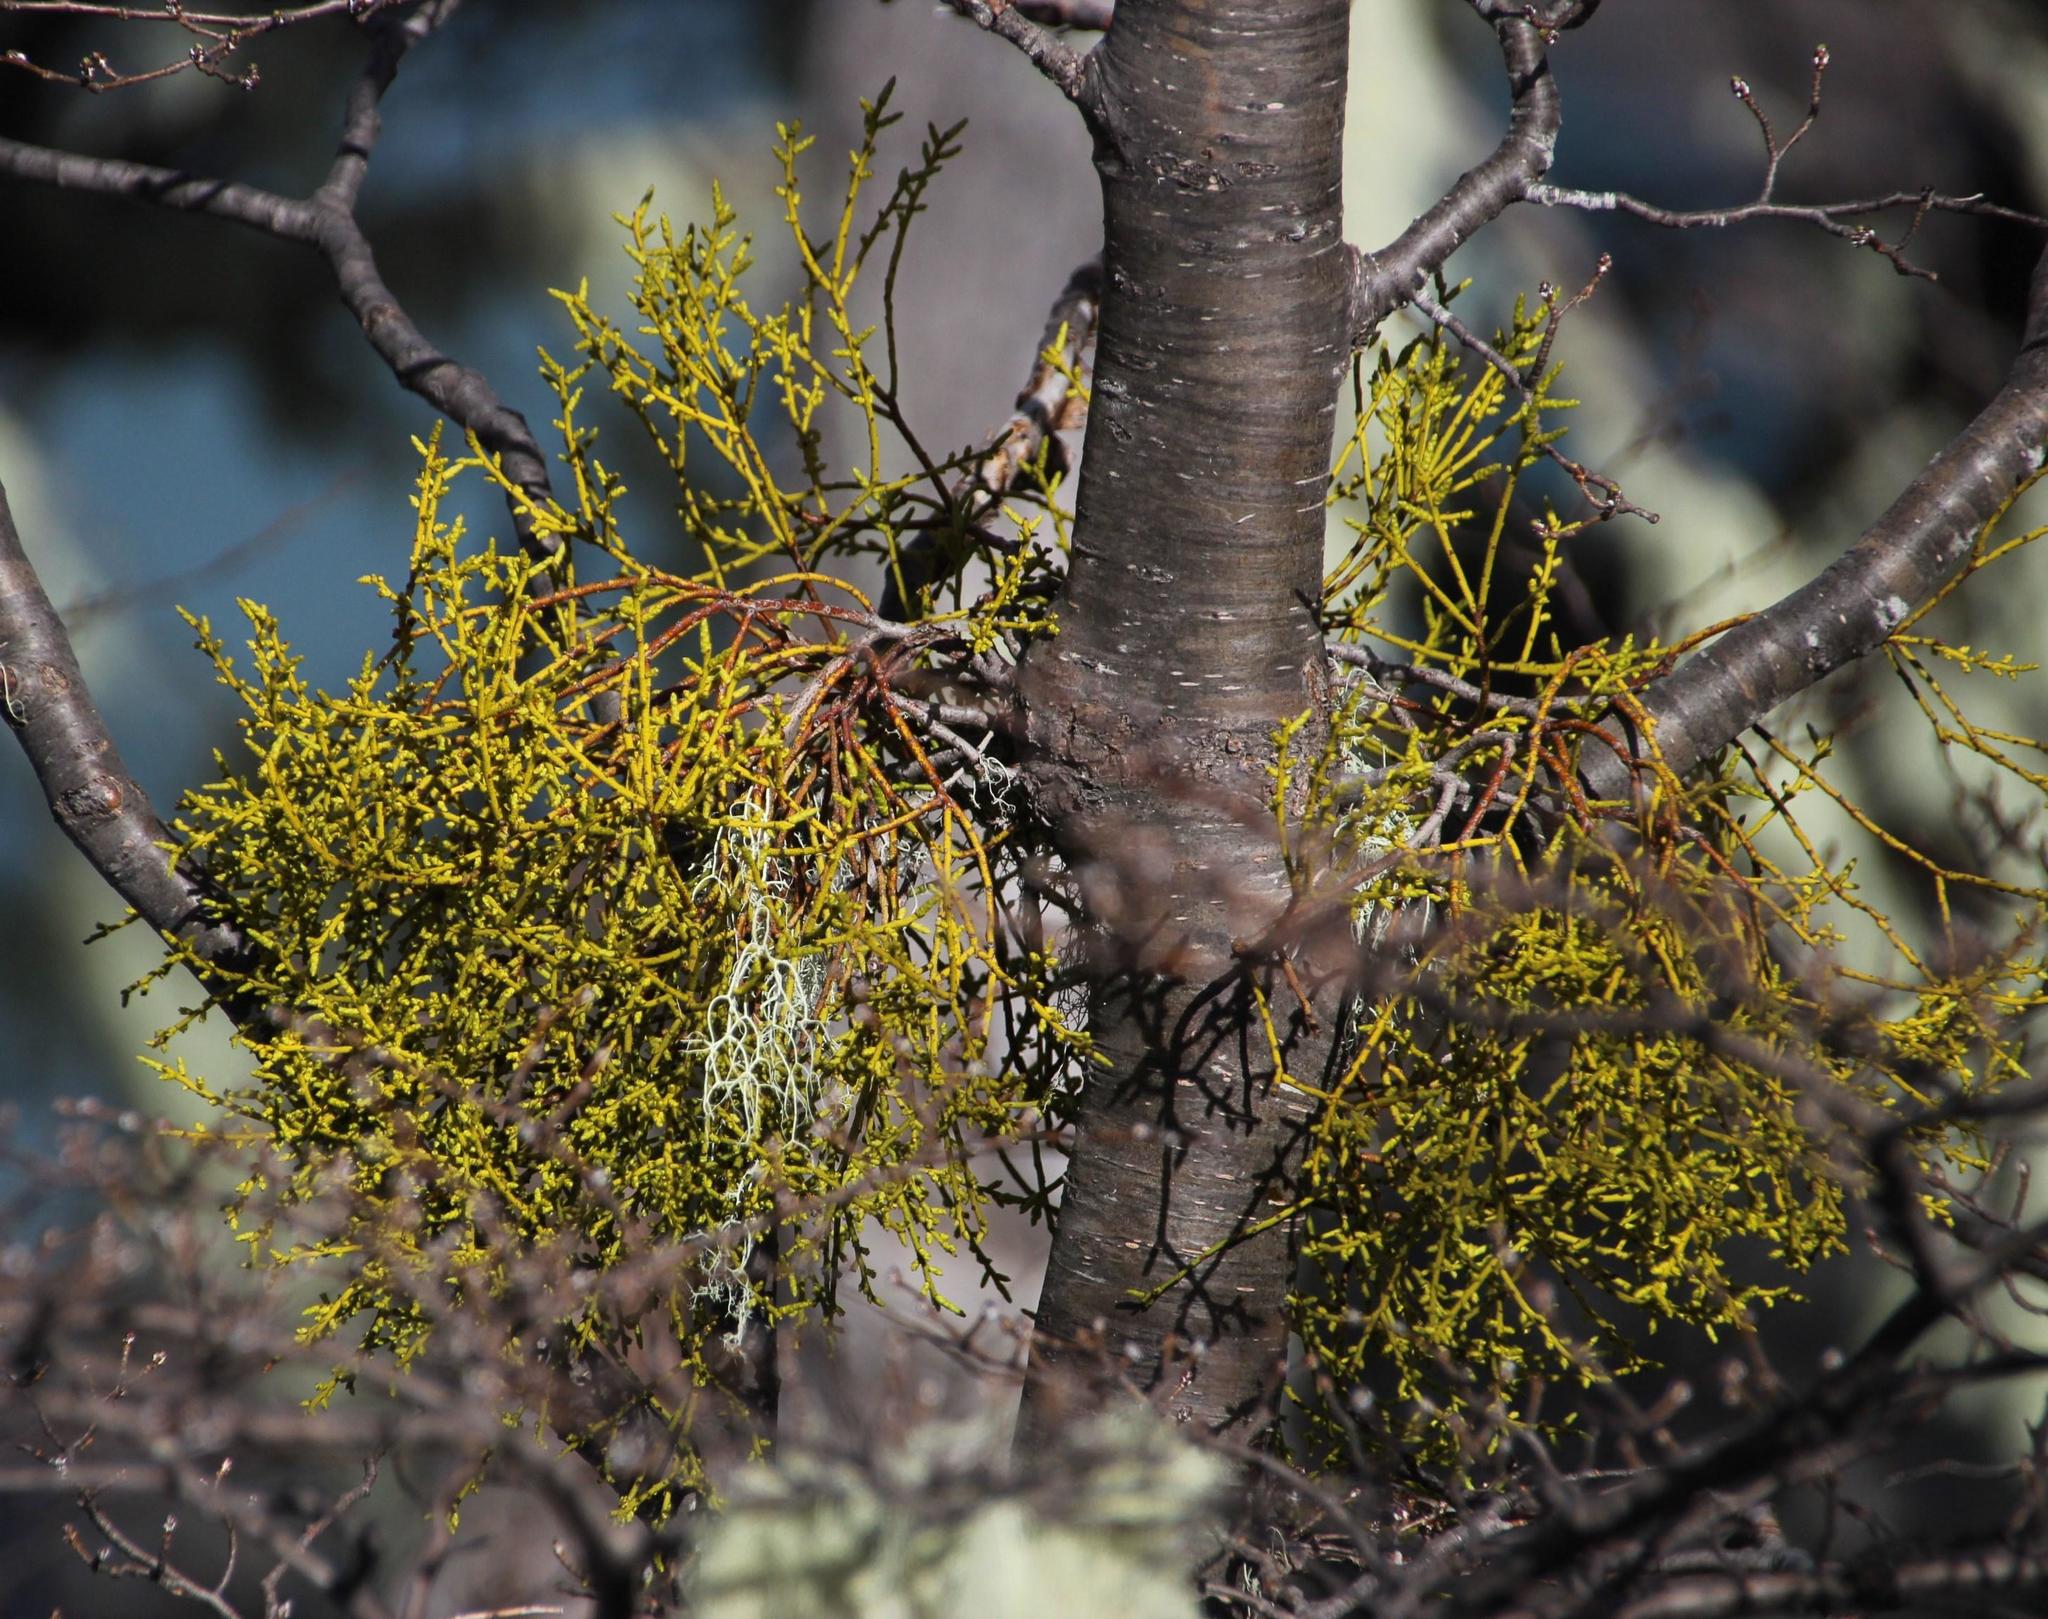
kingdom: Plantae
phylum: Tracheophyta
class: Magnoliopsida
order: Santalales
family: Misodendraceae
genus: Misodendrum
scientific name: Misodendrum punctulatum
